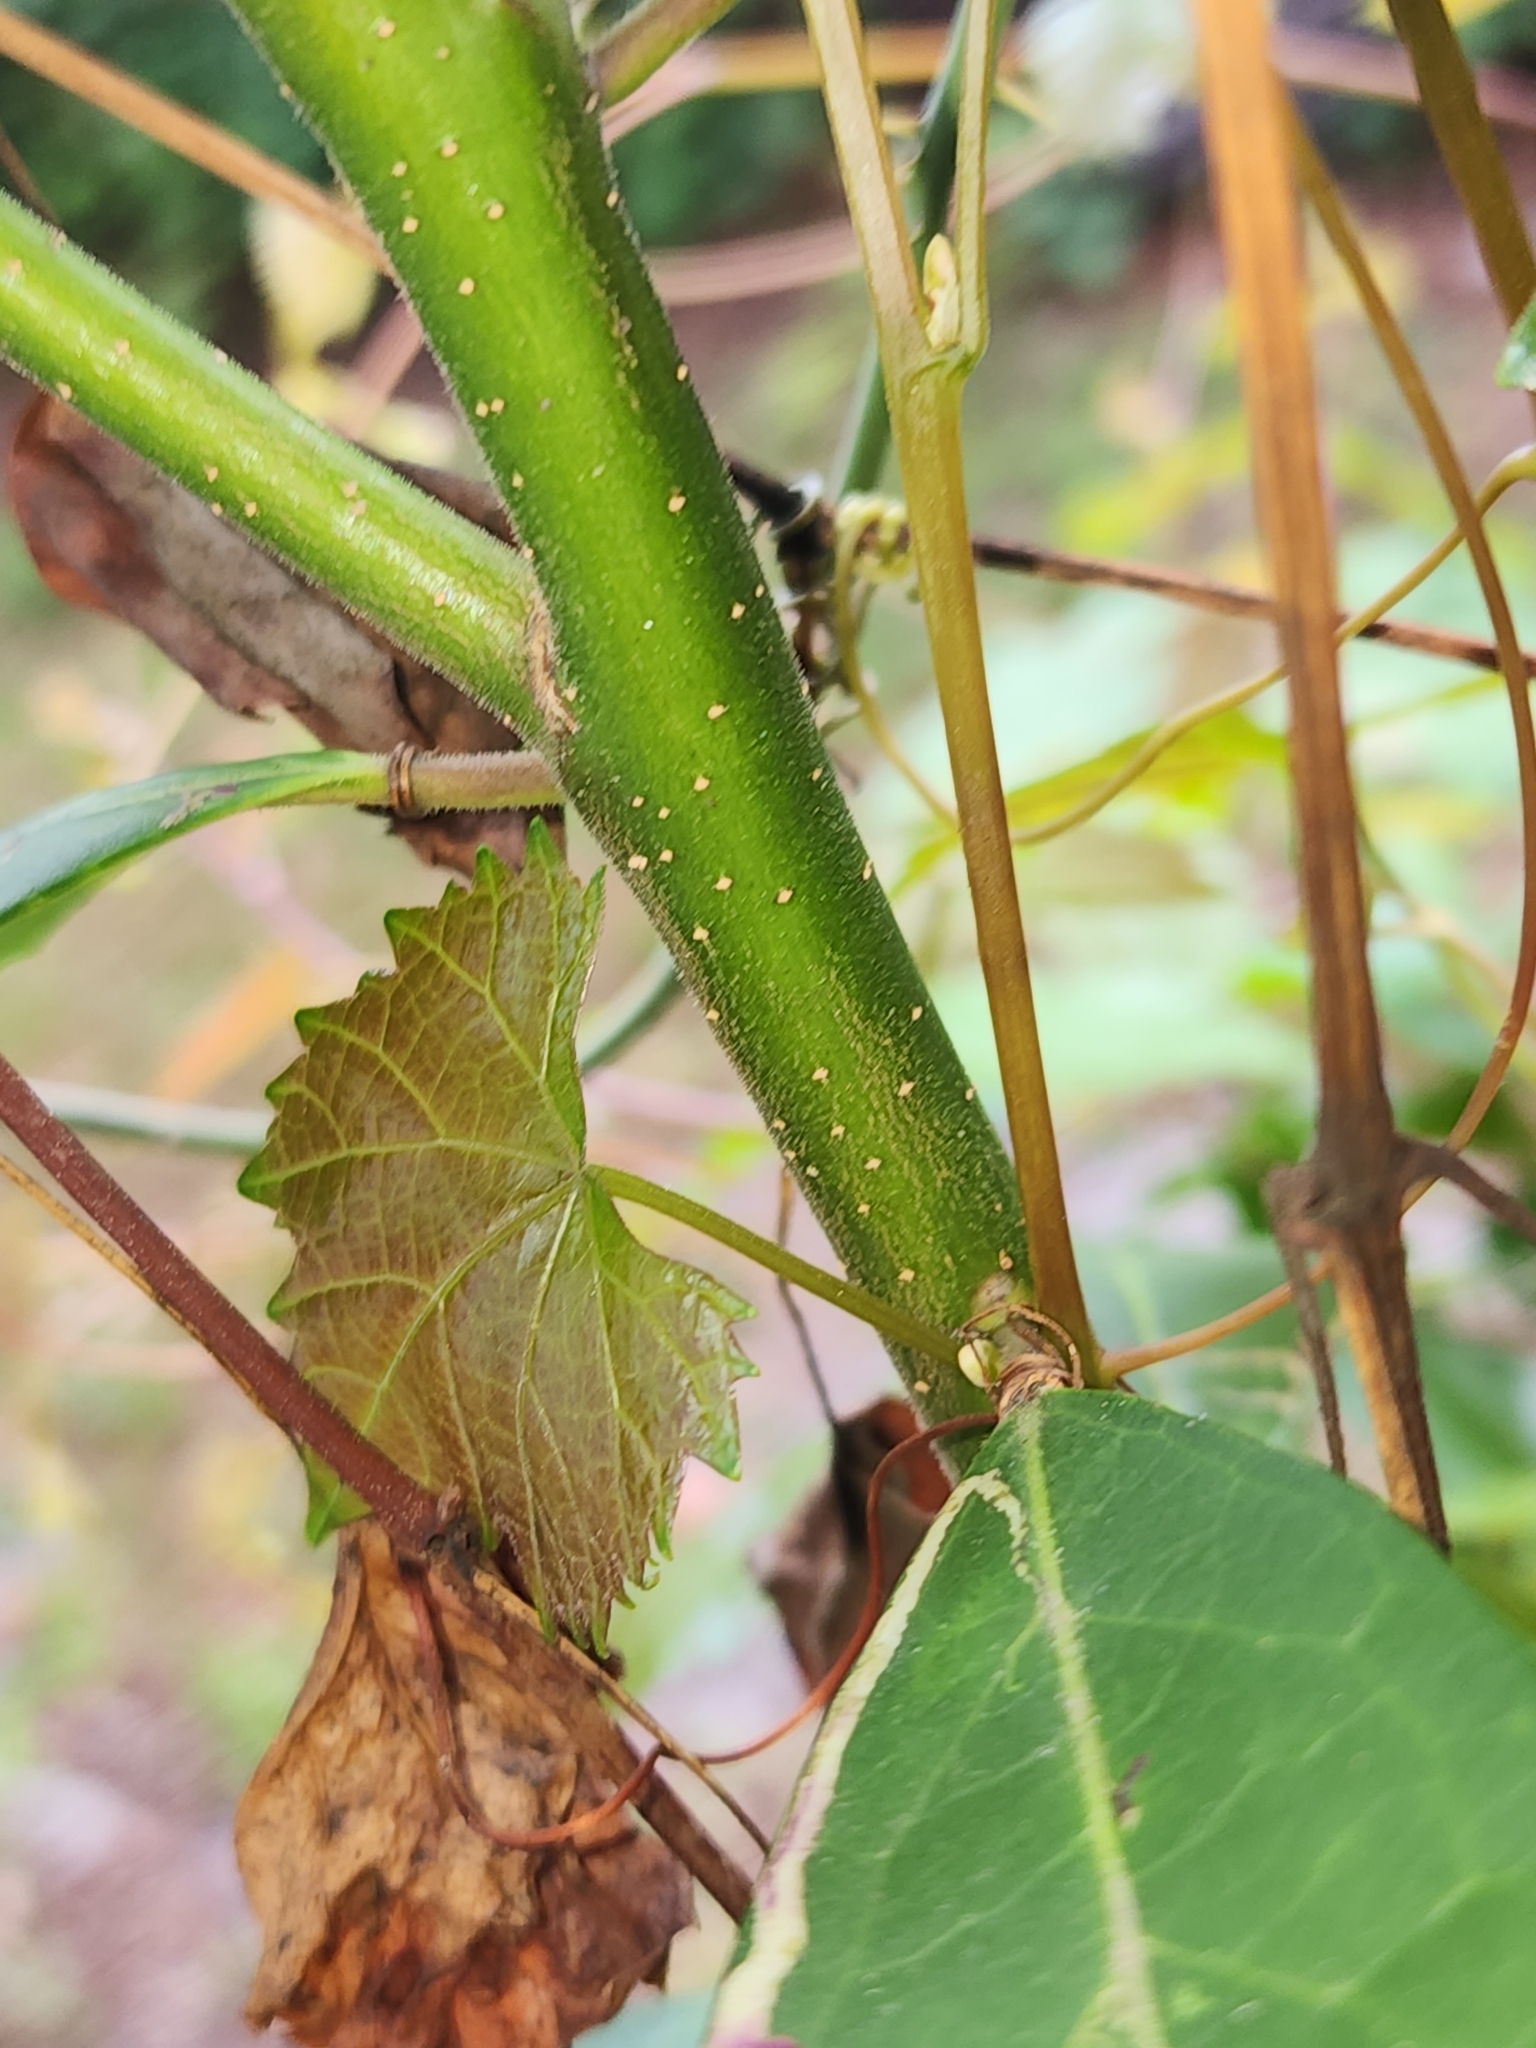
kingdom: Plantae
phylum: Tracheophyta
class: Magnoliopsida
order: Aquifoliales
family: Aquifoliaceae
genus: Ilex
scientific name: Ilex cassine
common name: Dahoon
